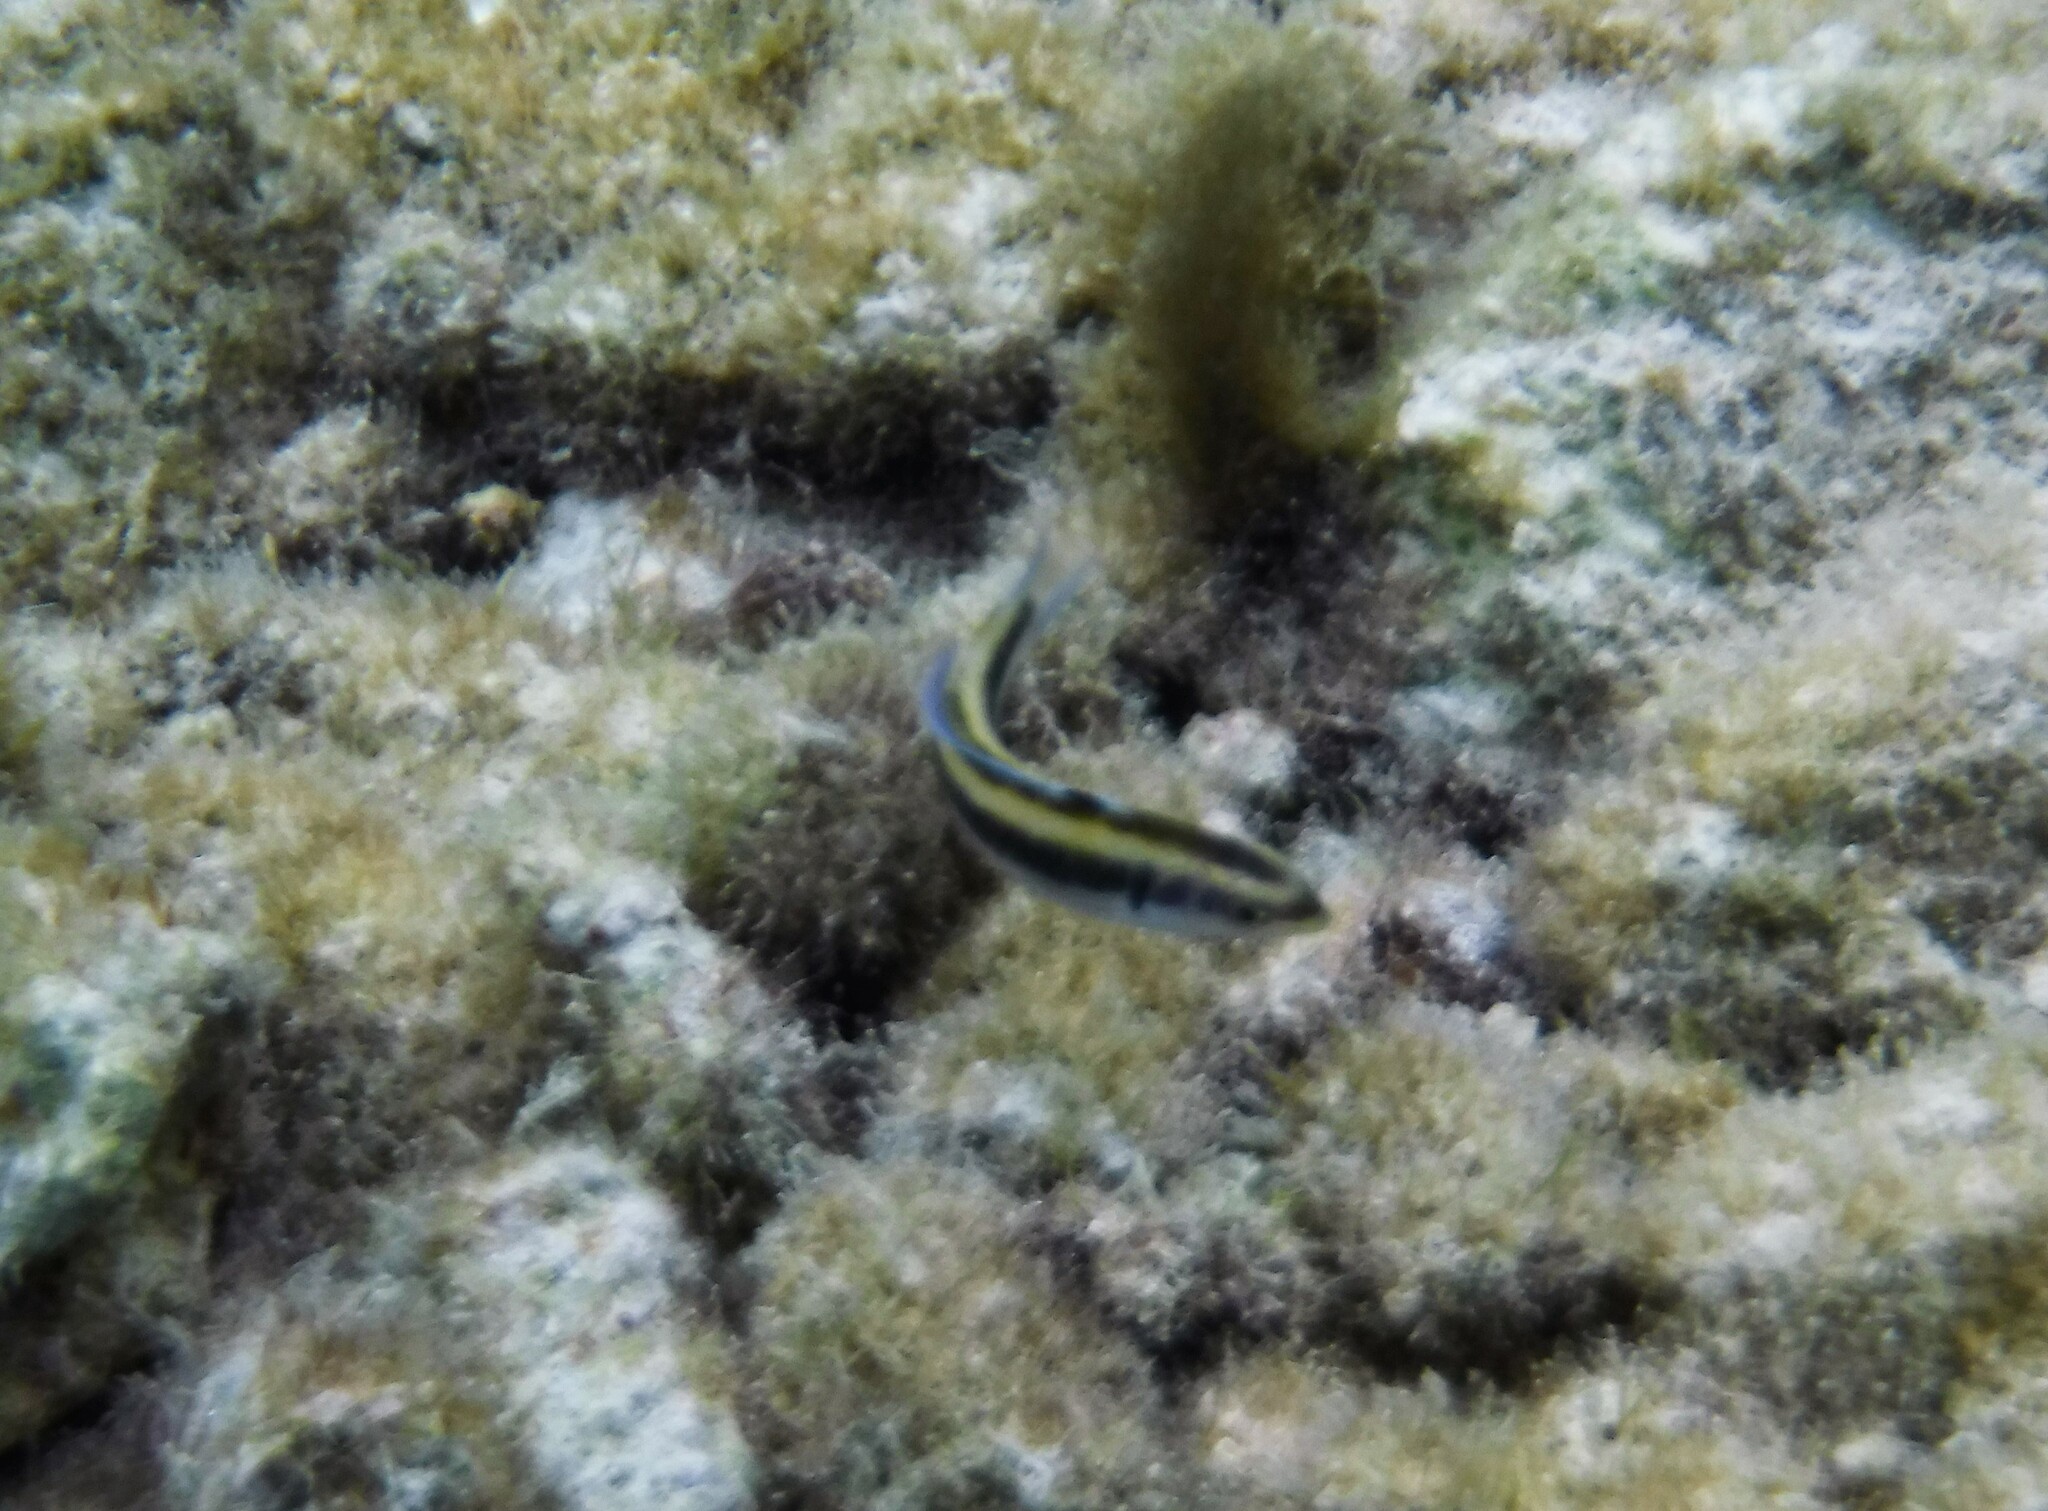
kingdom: Animalia
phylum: Chordata
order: Perciformes
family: Labridae
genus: Thalassoma
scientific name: Thalassoma bifasciatum
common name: Bluehead wrasse
